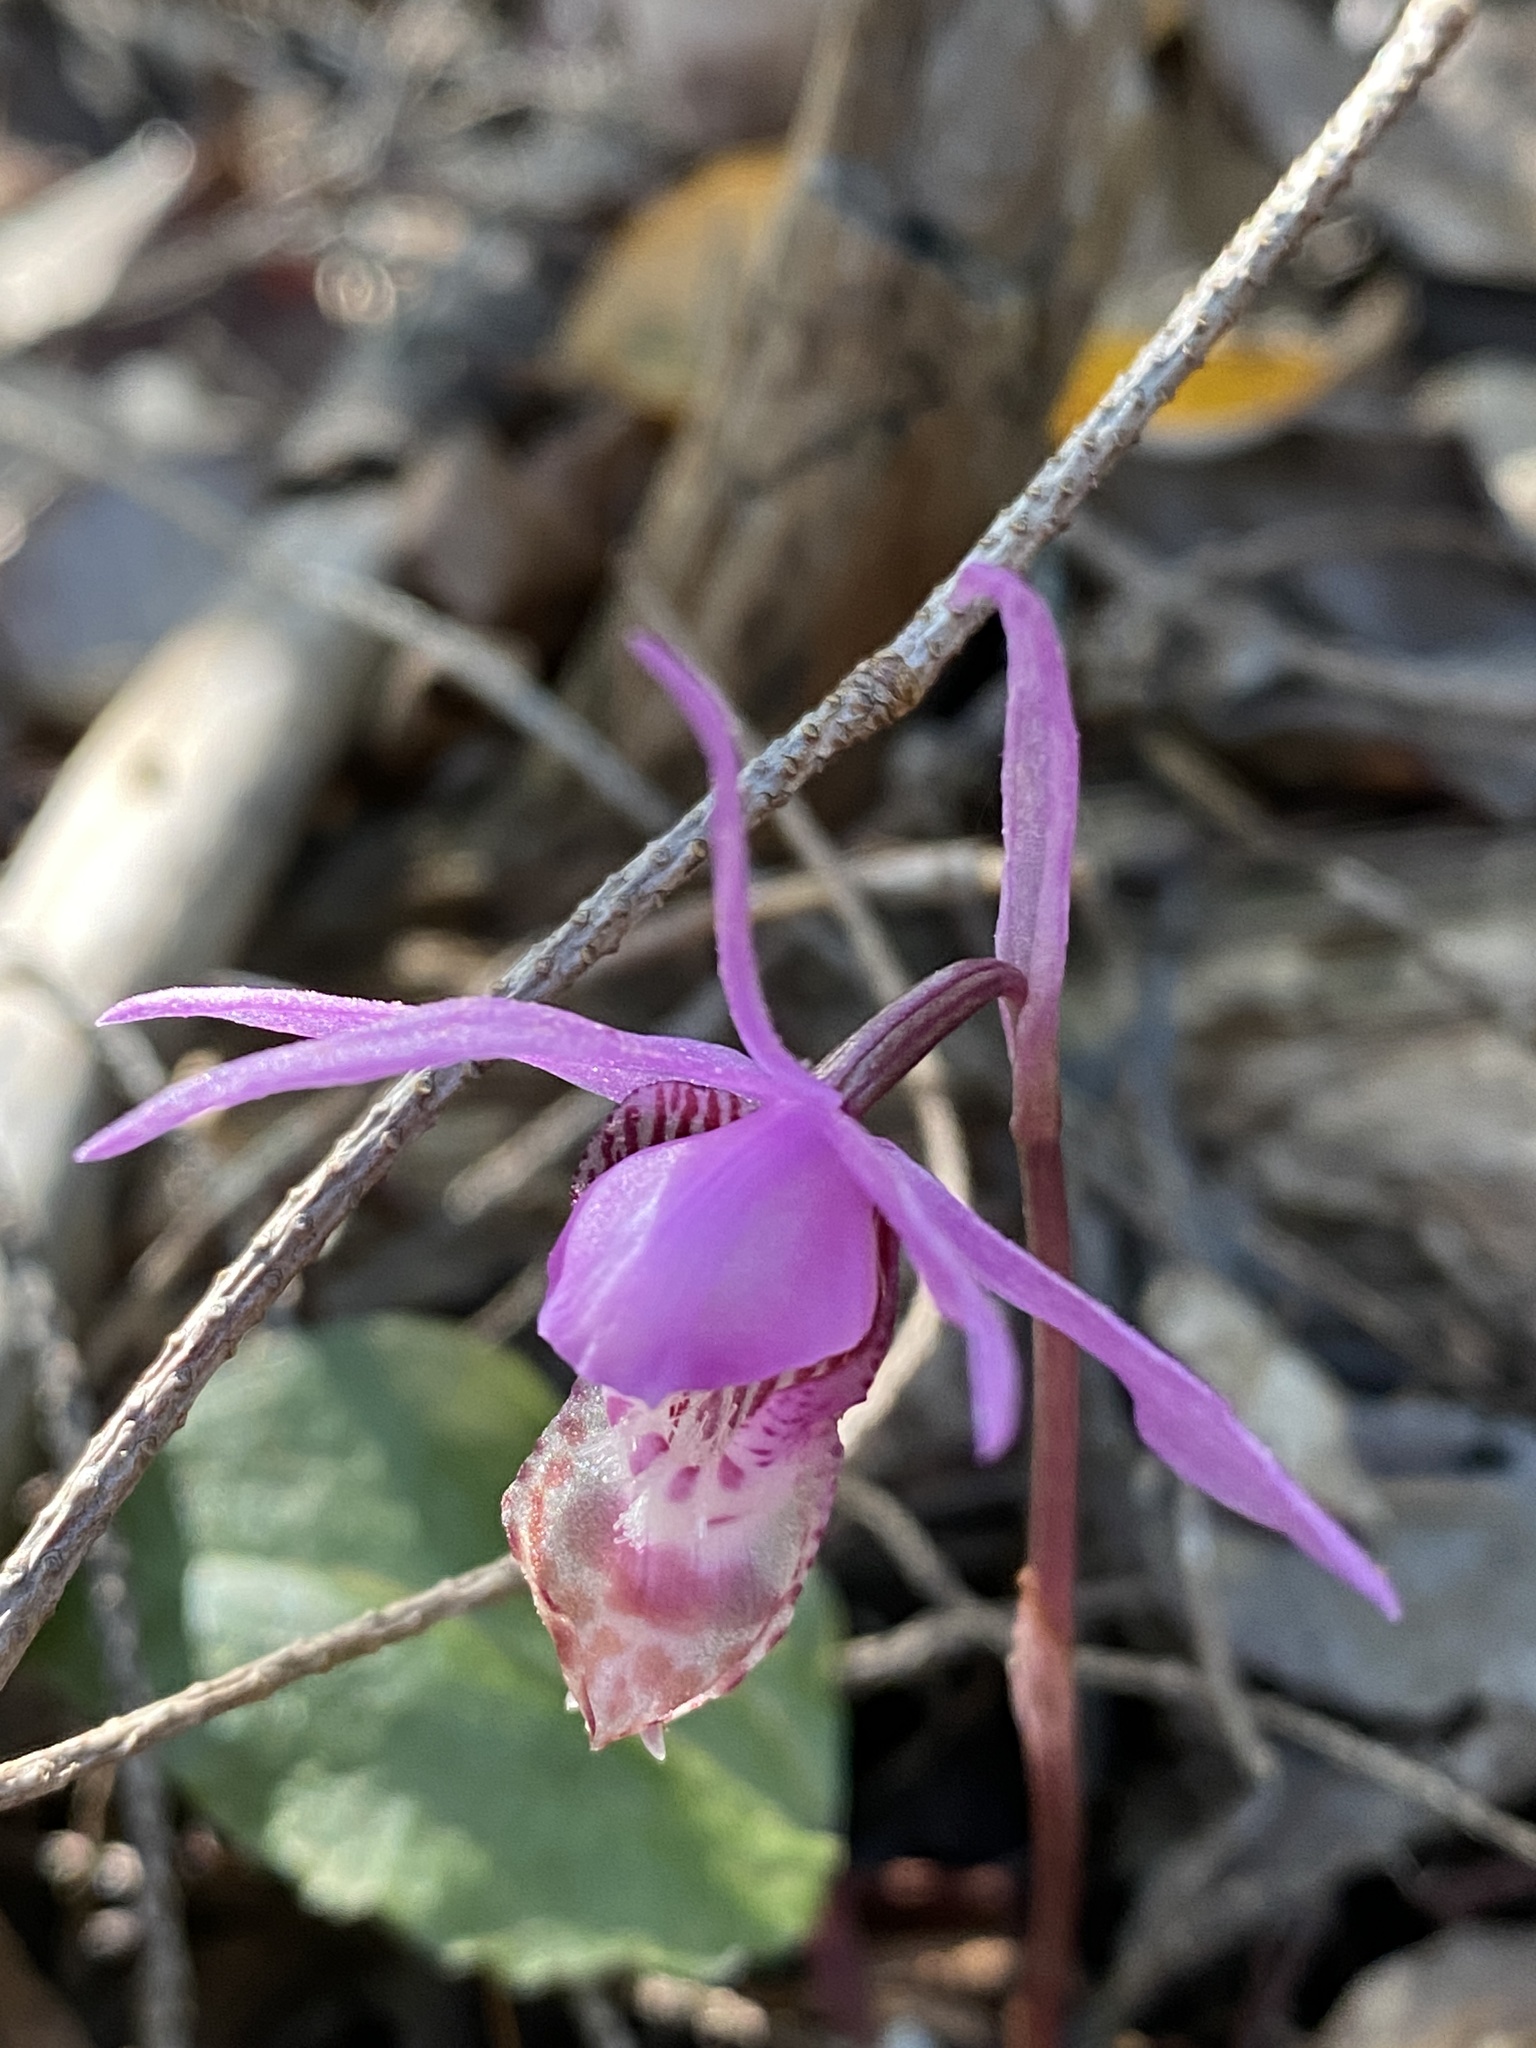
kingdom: Plantae
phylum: Tracheophyta
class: Liliopsida
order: Asparagales
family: Orchidaceae
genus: Calypso
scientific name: Calypso bulbosa
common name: Calypso
